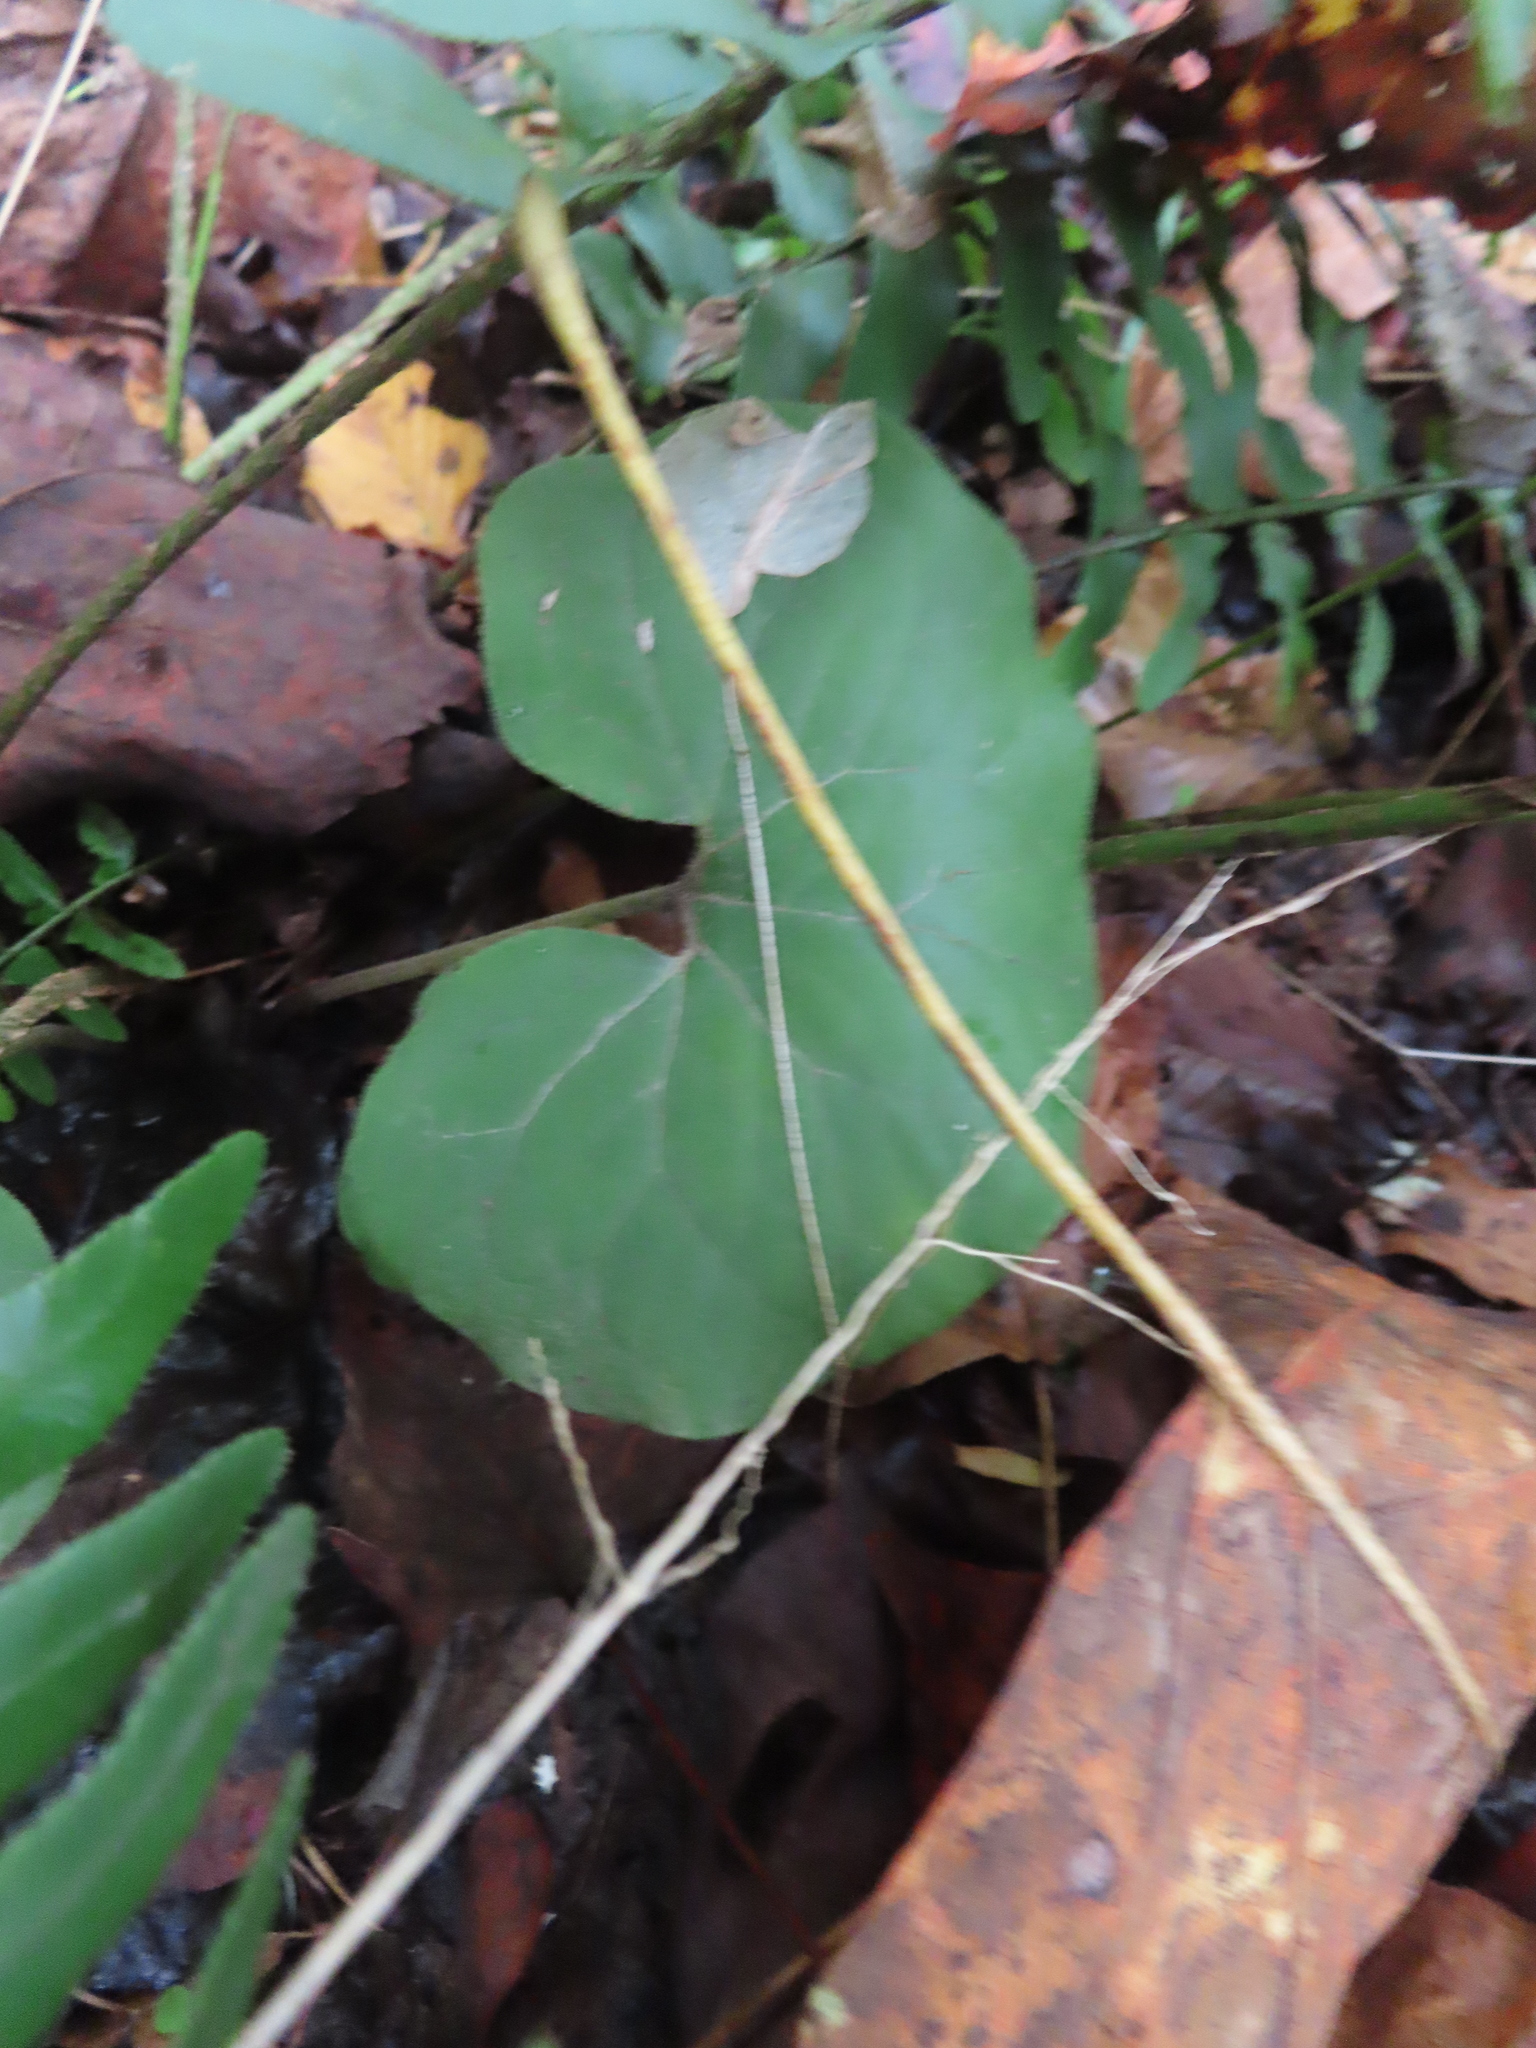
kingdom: Plantae
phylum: Tracheophyta
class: Magnoliopsida
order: Piperales
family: Aristolochiaceae
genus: Asarum
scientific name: Asarum canadense
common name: Wild ginger
